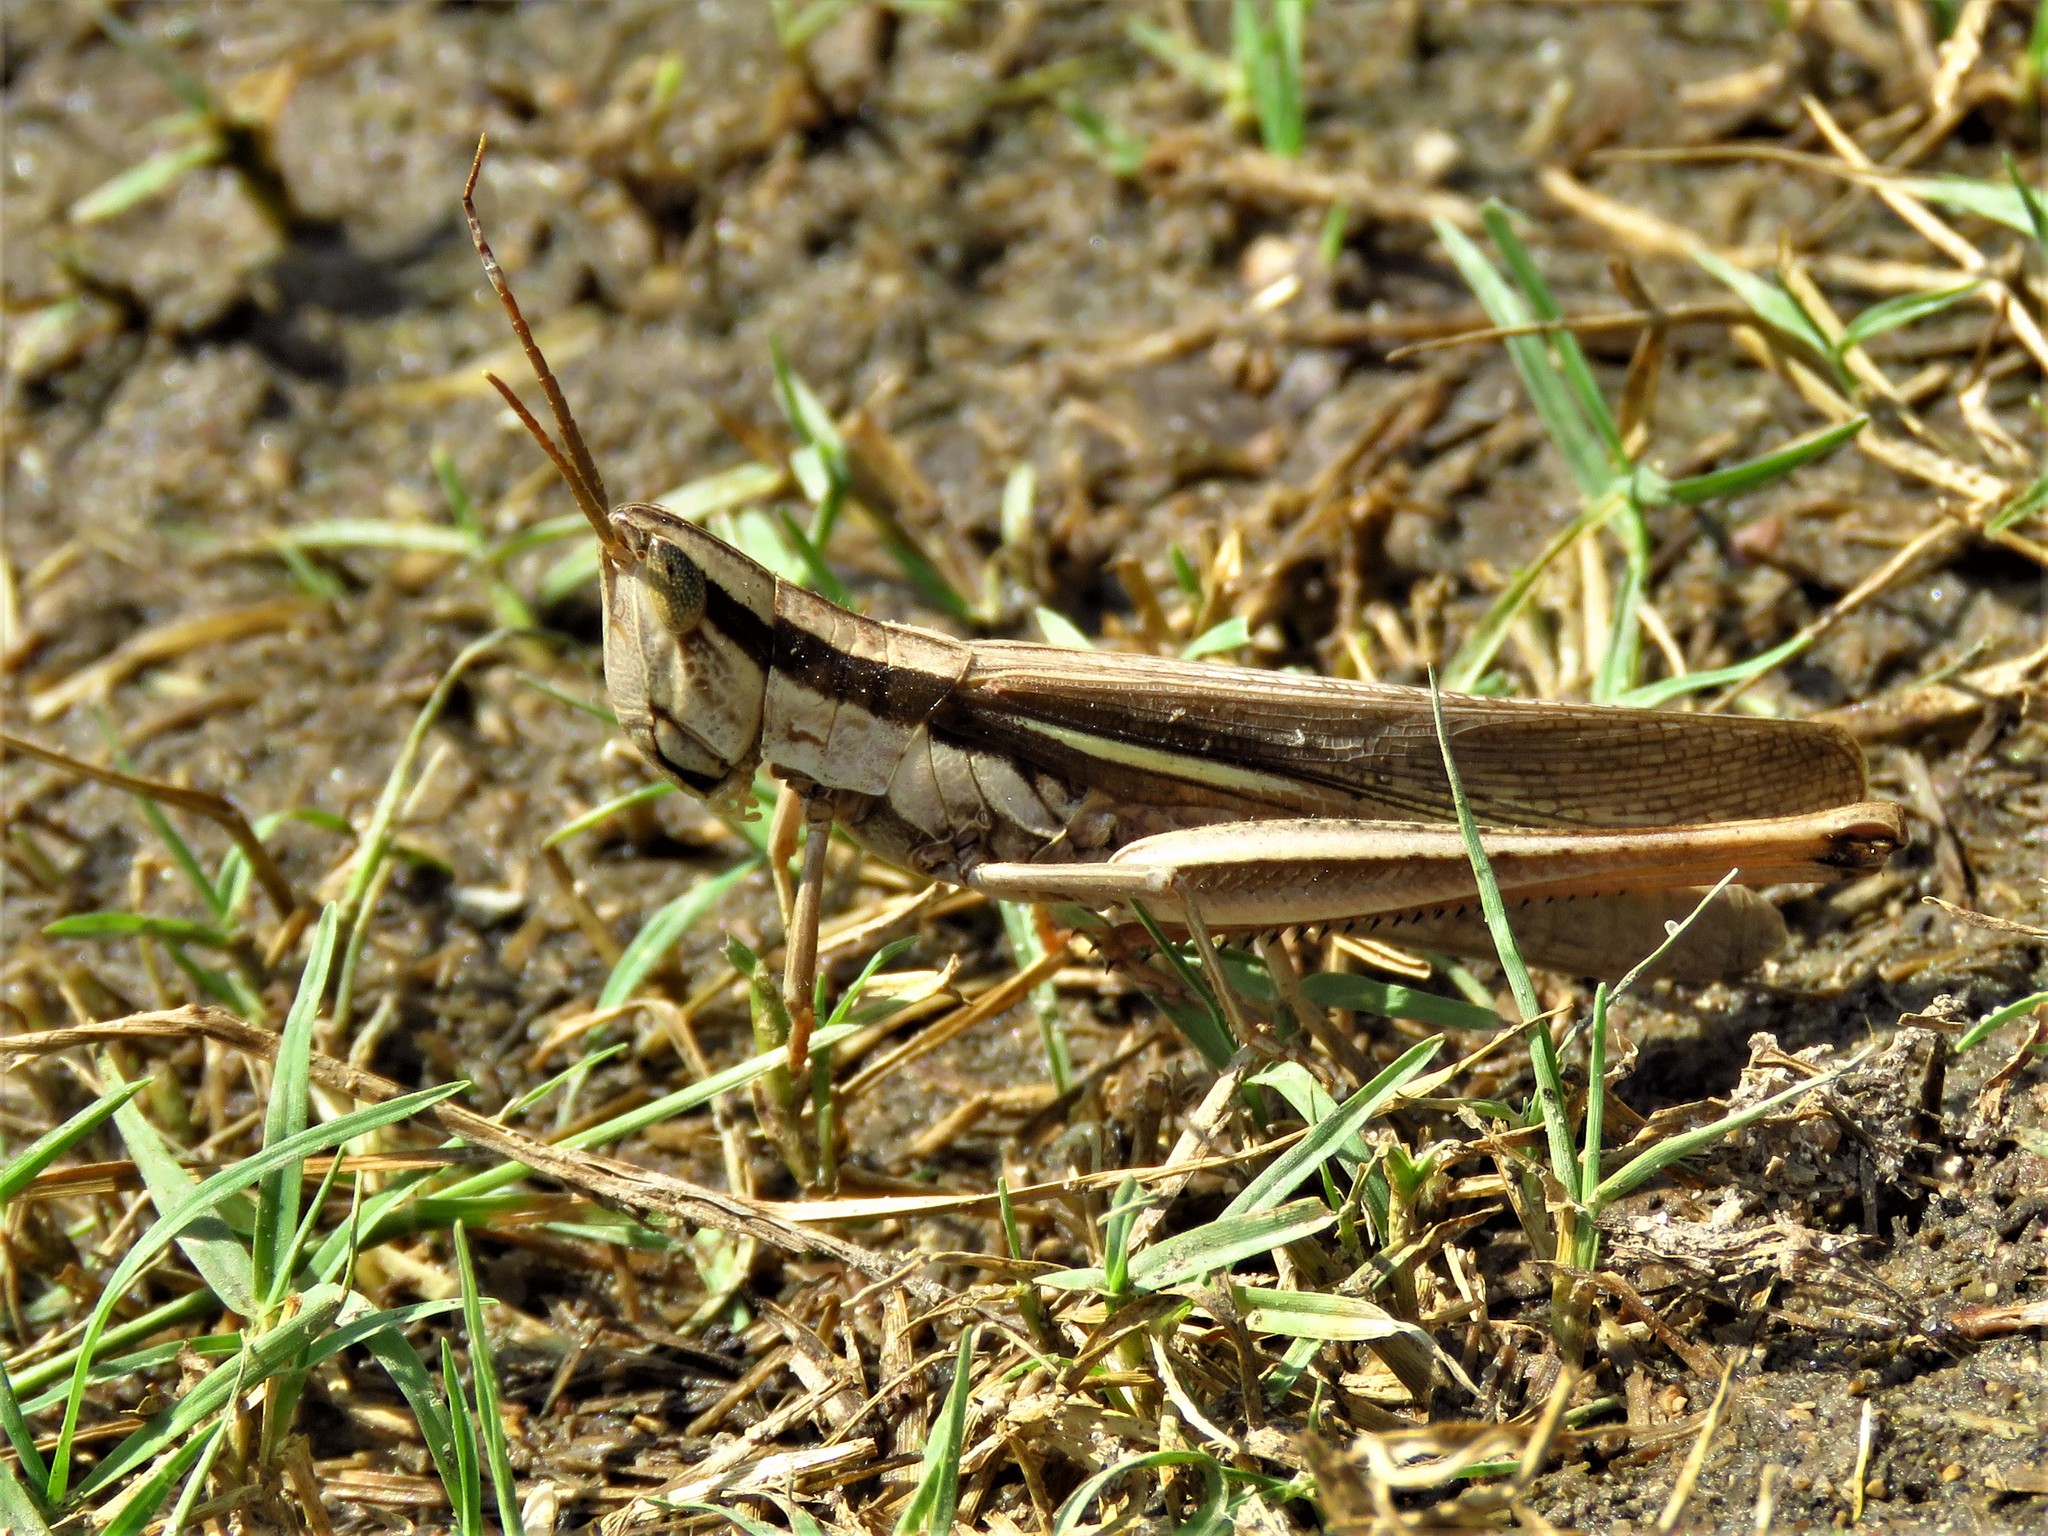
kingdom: Animalia
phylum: Arthropoda
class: Insecta
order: Orthoptera
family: Acrididae
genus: Mermiria
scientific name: Mermiria bivittata
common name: Two-striped mermiria grasshopper
